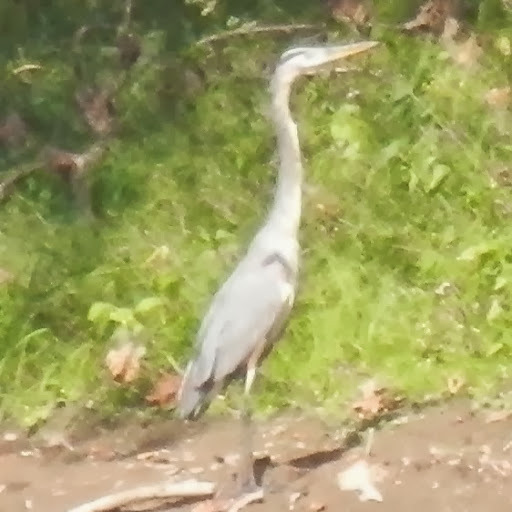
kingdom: Animalia
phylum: Chordata
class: Aves
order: Pelecaniformes
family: Ardeidae
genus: Ardea
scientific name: Ardea herodias
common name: Great blue heron
